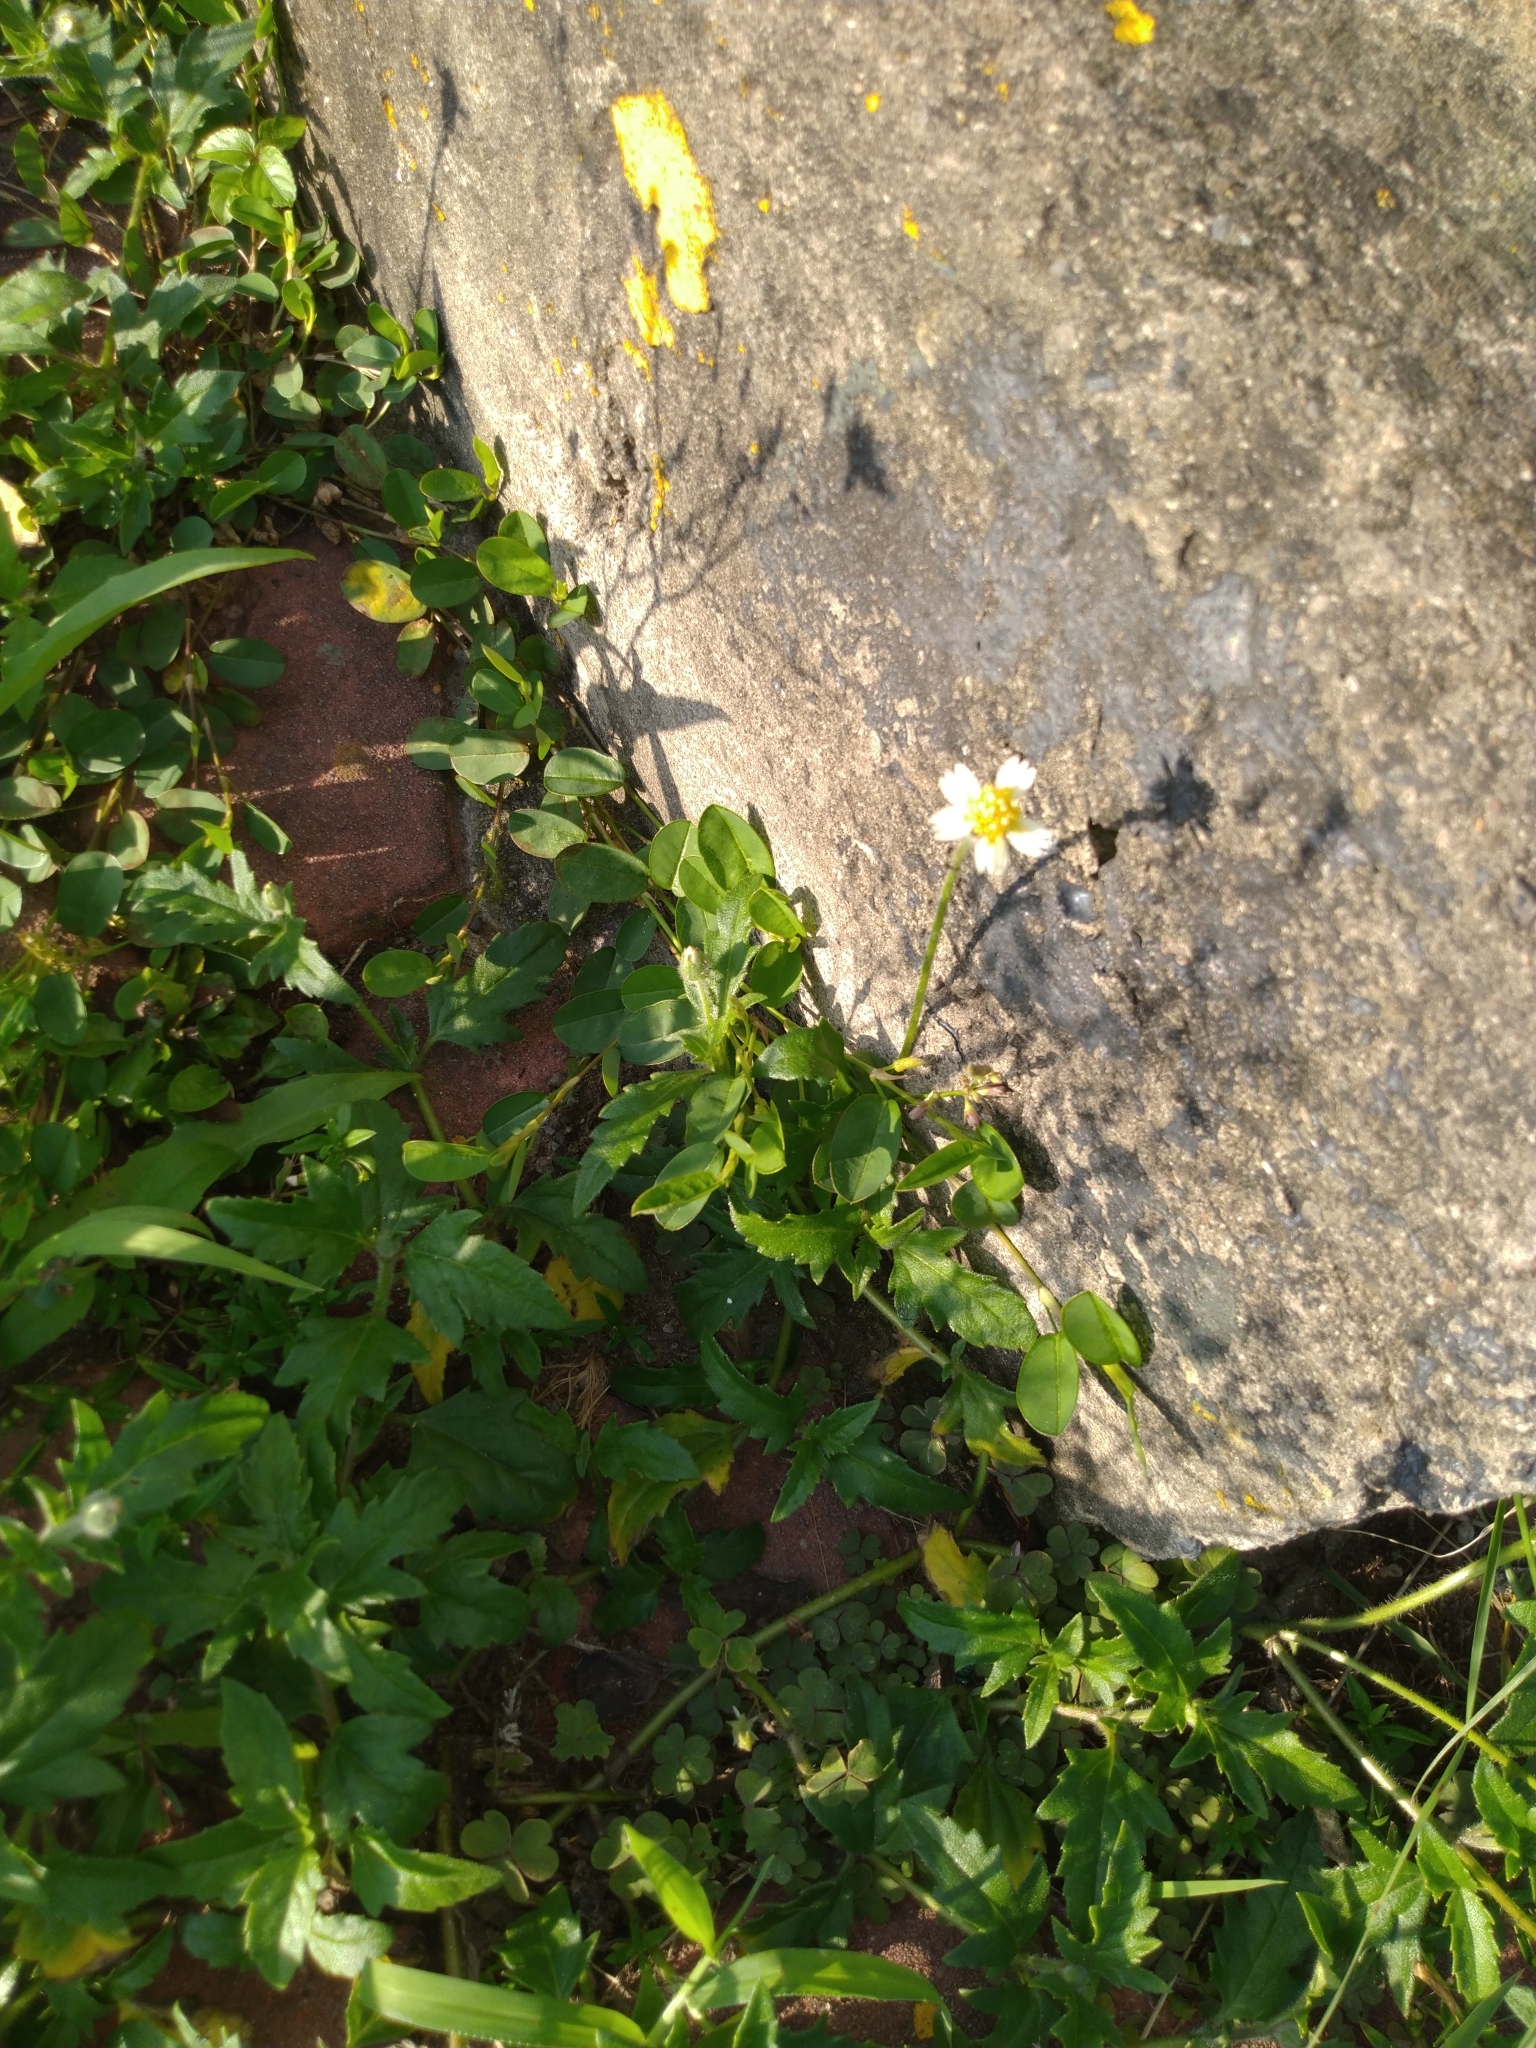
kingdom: Plantae
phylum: Tracheophyta
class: Magnoliopsida
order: Asterales
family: Asteraceae
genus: Tridax
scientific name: Tridax procumbens
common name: Coatbuttons
